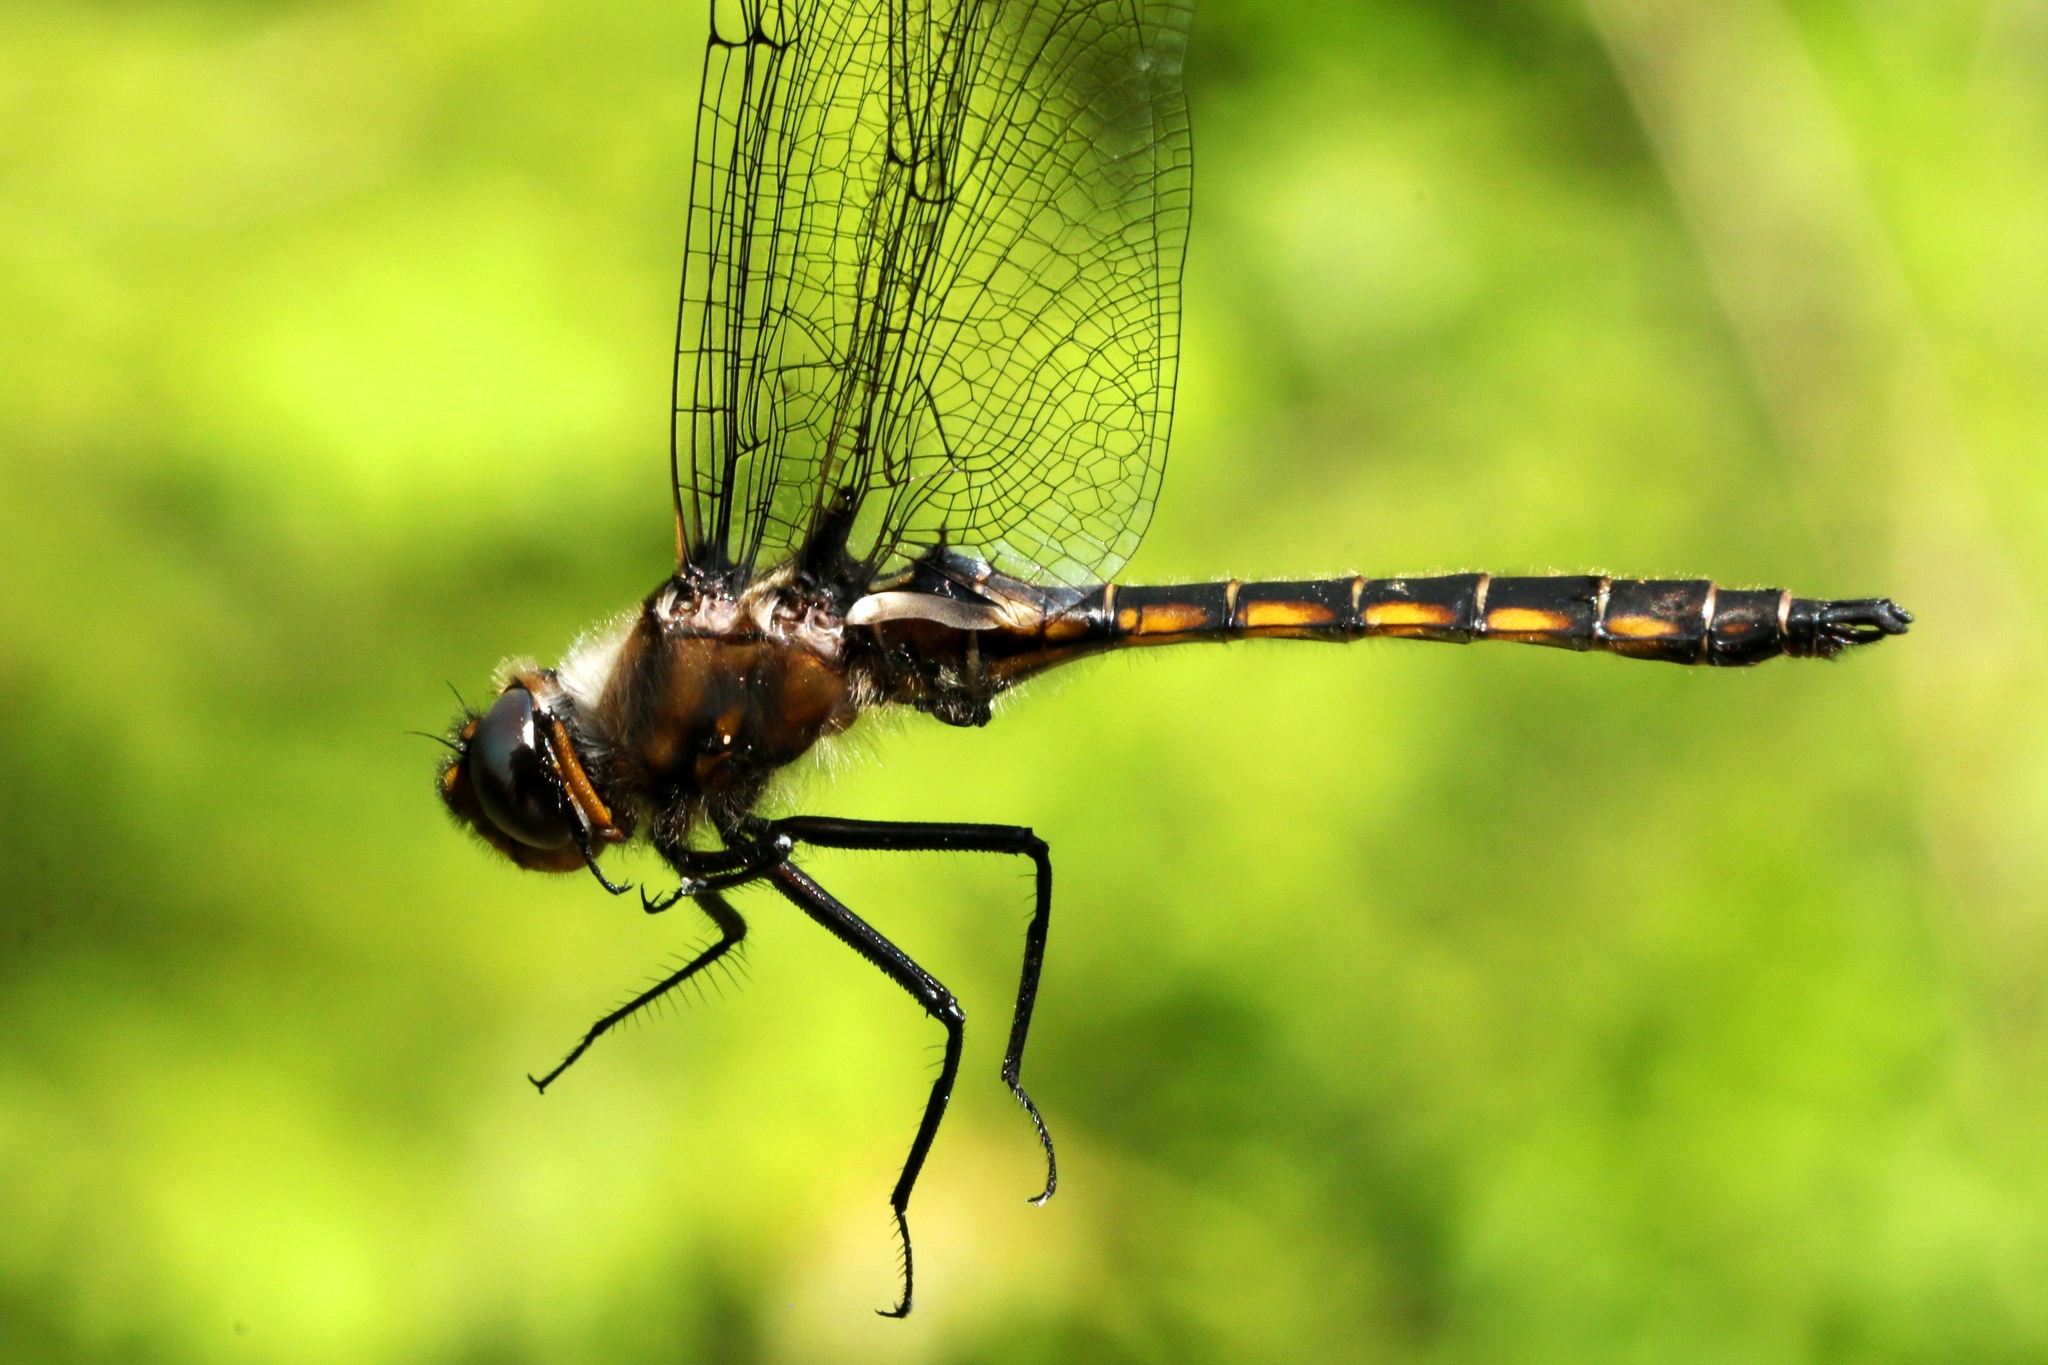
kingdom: Animalia
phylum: Arthropoda
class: Insecta
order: Odonata
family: Corduliidae
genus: Epitheca
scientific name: Epitheca canis
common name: Beaverpond baskettail
